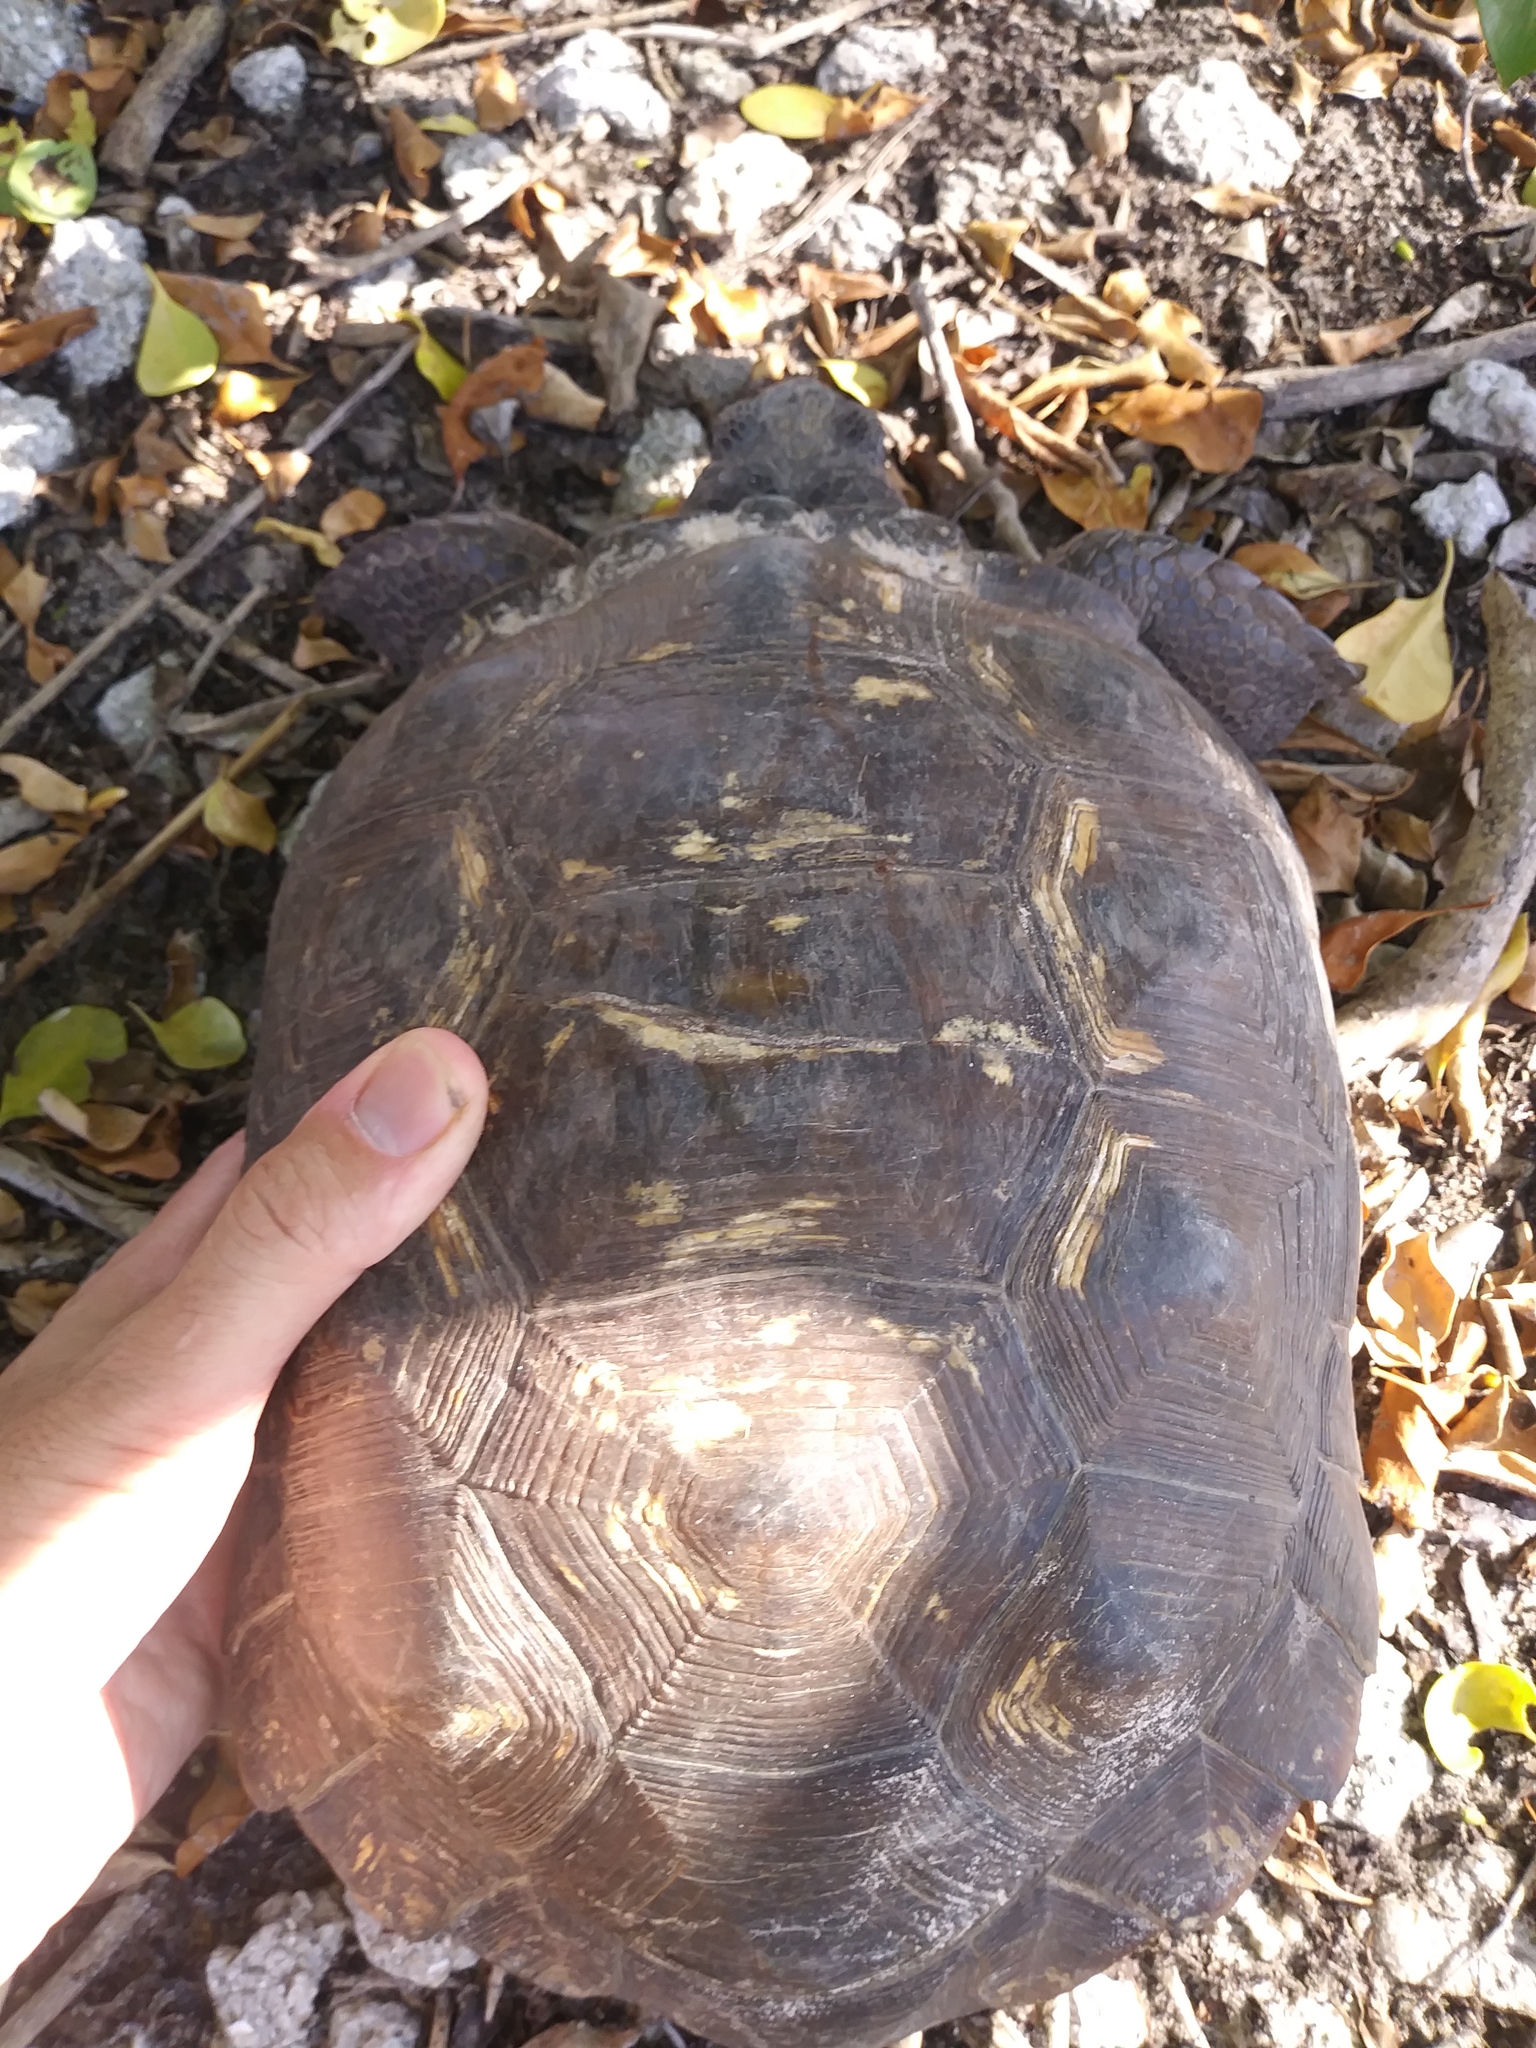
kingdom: Animalia
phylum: Chordata
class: Testudines
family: Testudinidae
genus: Gopherus
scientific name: Gopherus polyphemus
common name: Florida gopher tortoise
